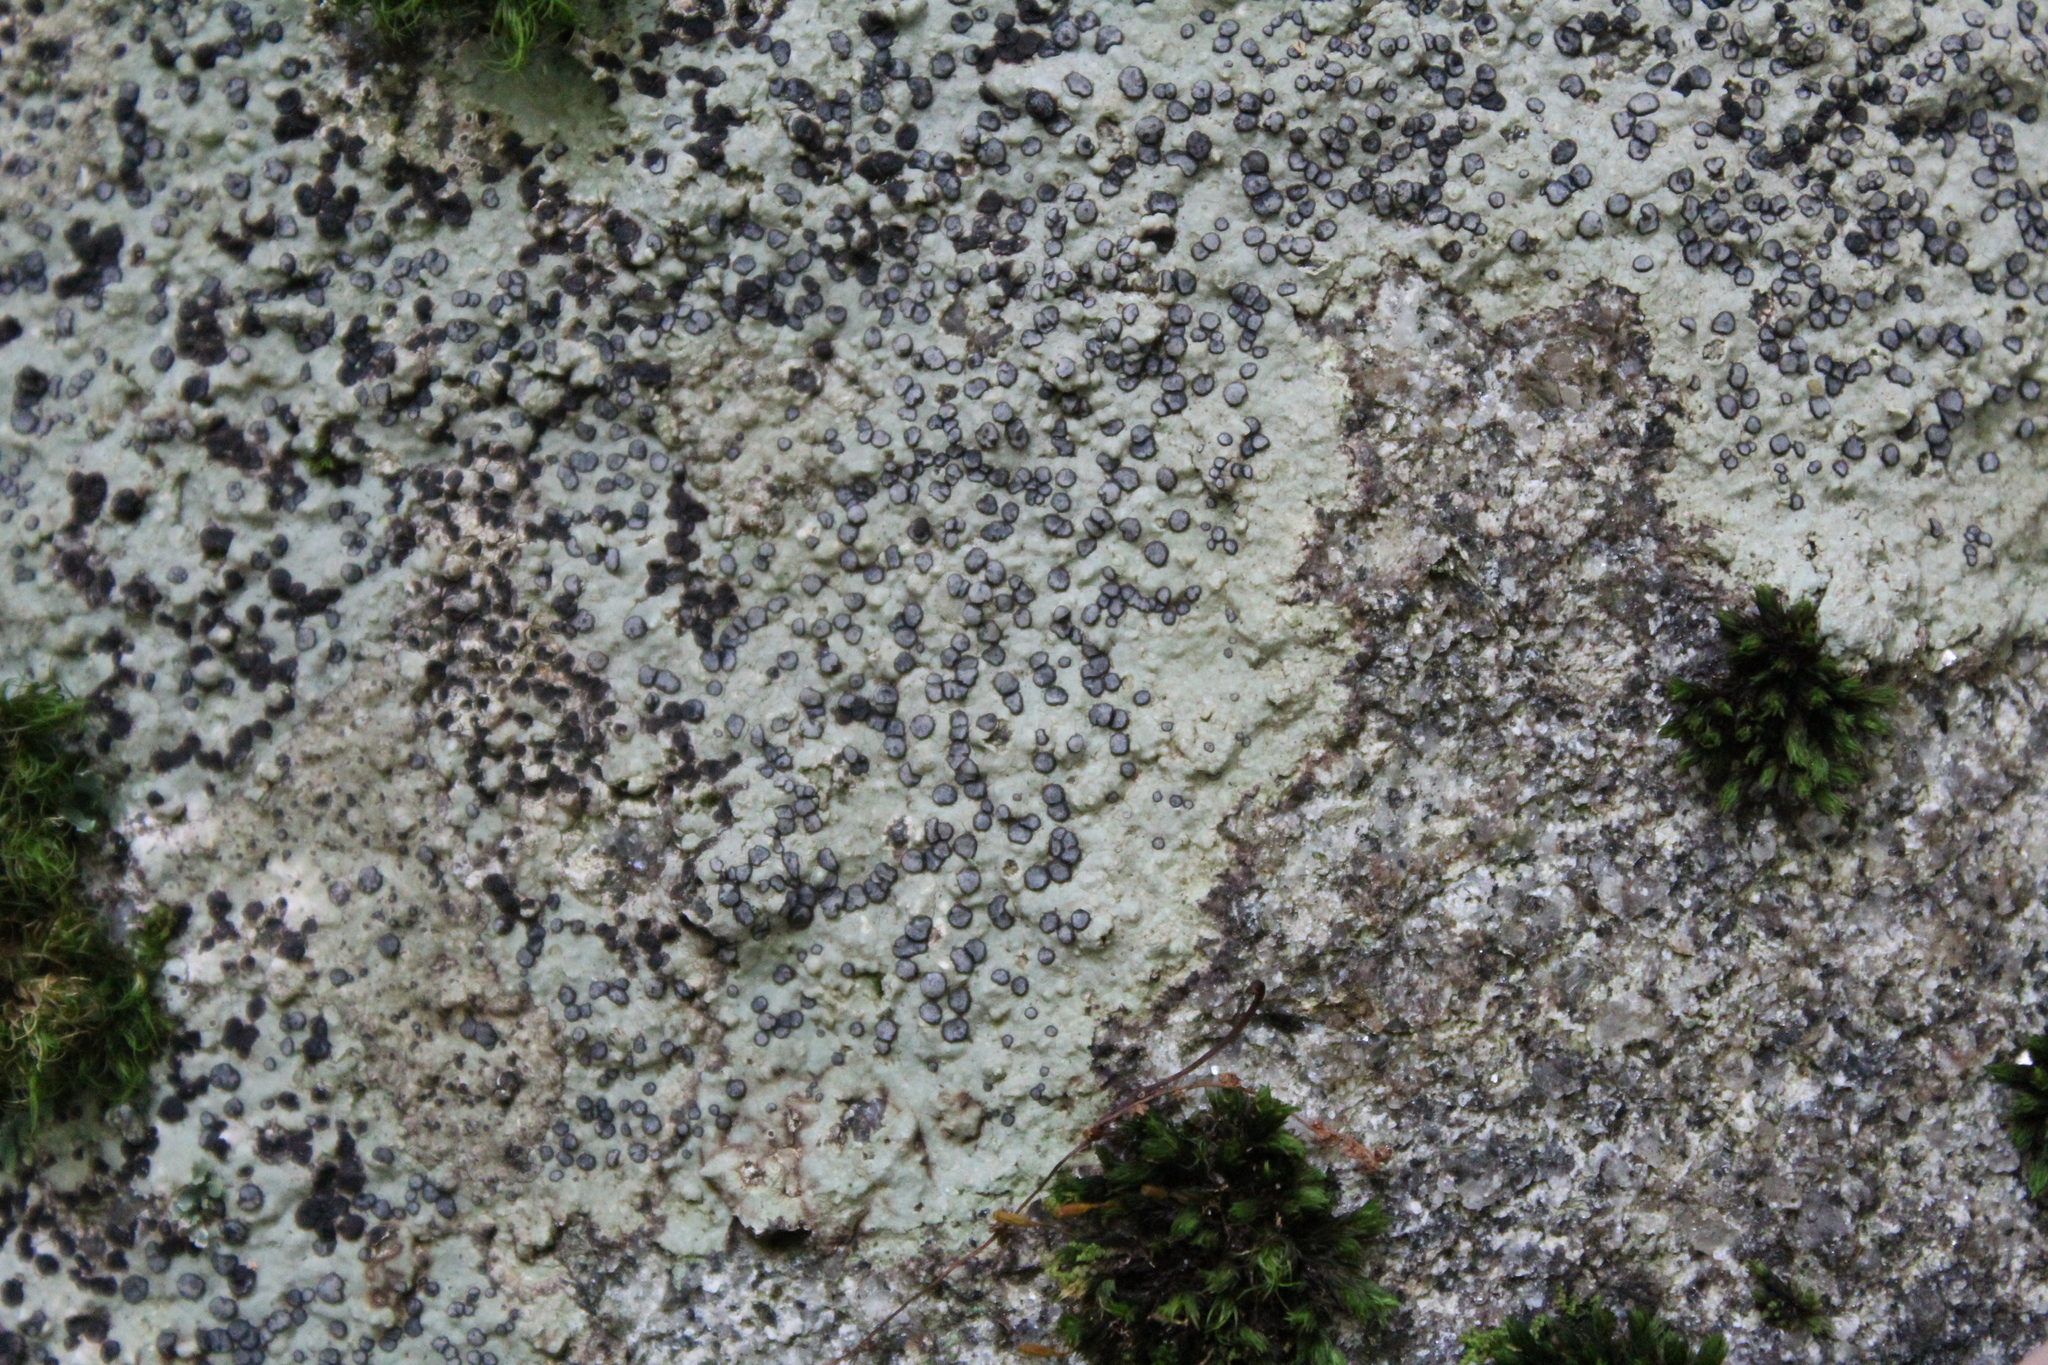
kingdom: Fungi
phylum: Ascomycota
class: Lecanoromycetes
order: Lecideales
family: Lecideaceae
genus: Porpidia
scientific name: Porpidia albocaerulescens
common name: Smokey-eyed boulder lichen
